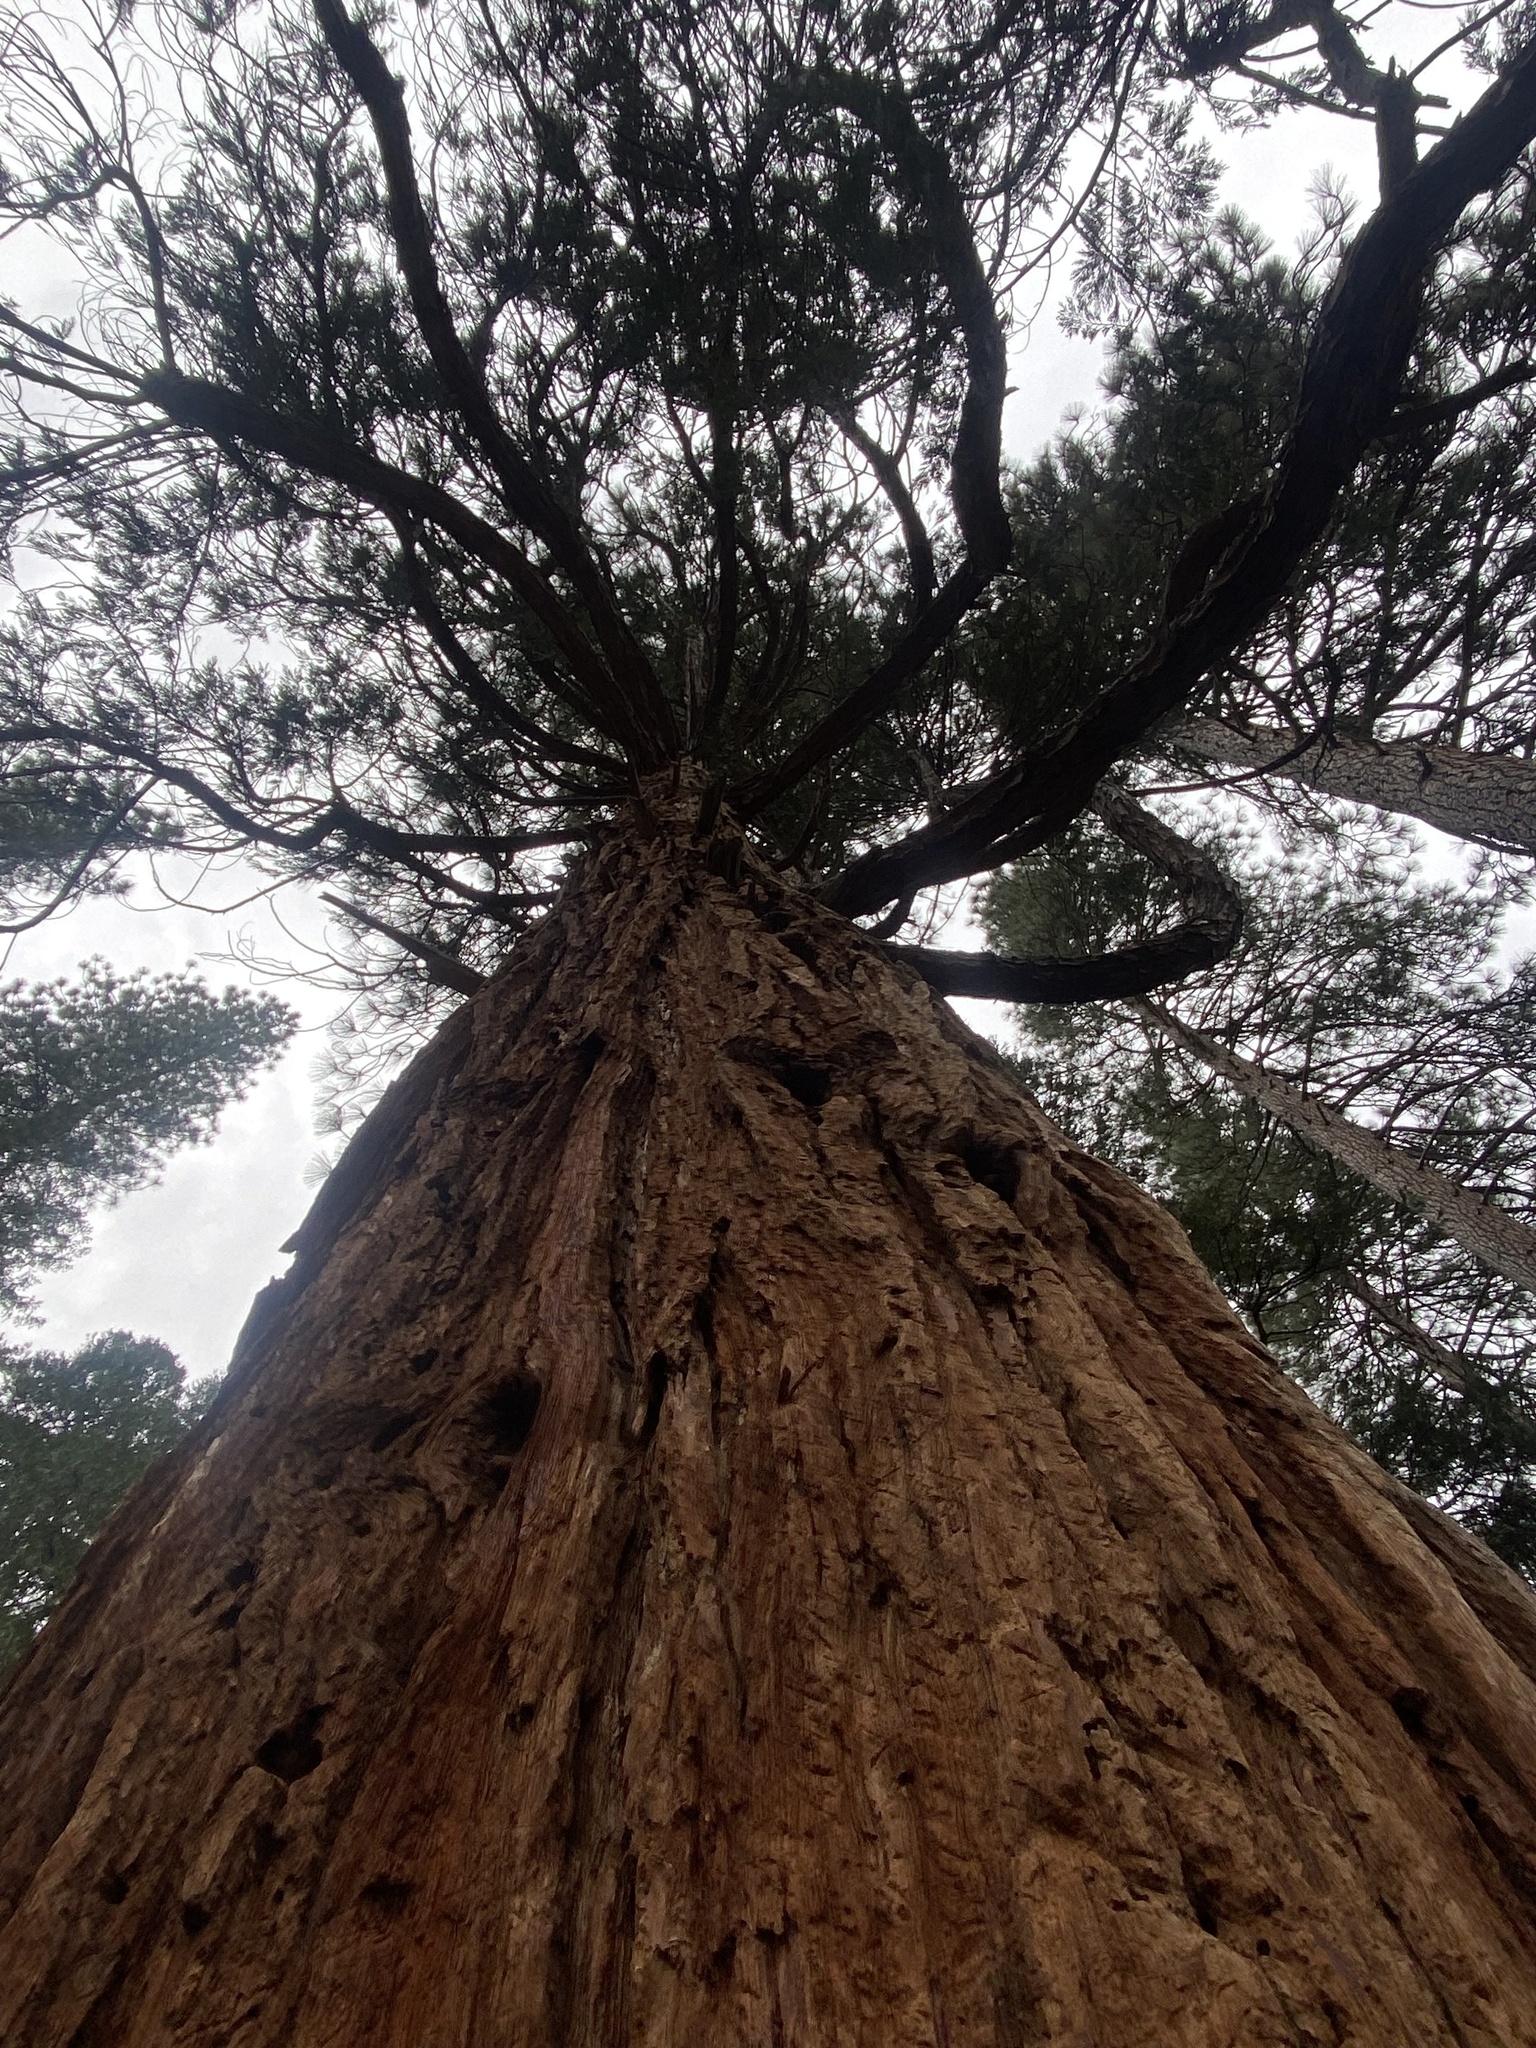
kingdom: Plantae
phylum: Tracheophyta
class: Pinopsida
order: Pinales
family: Cupressaceae
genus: Sequoiadendron
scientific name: Sequoiadendron giganteum
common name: Wellingtonia
